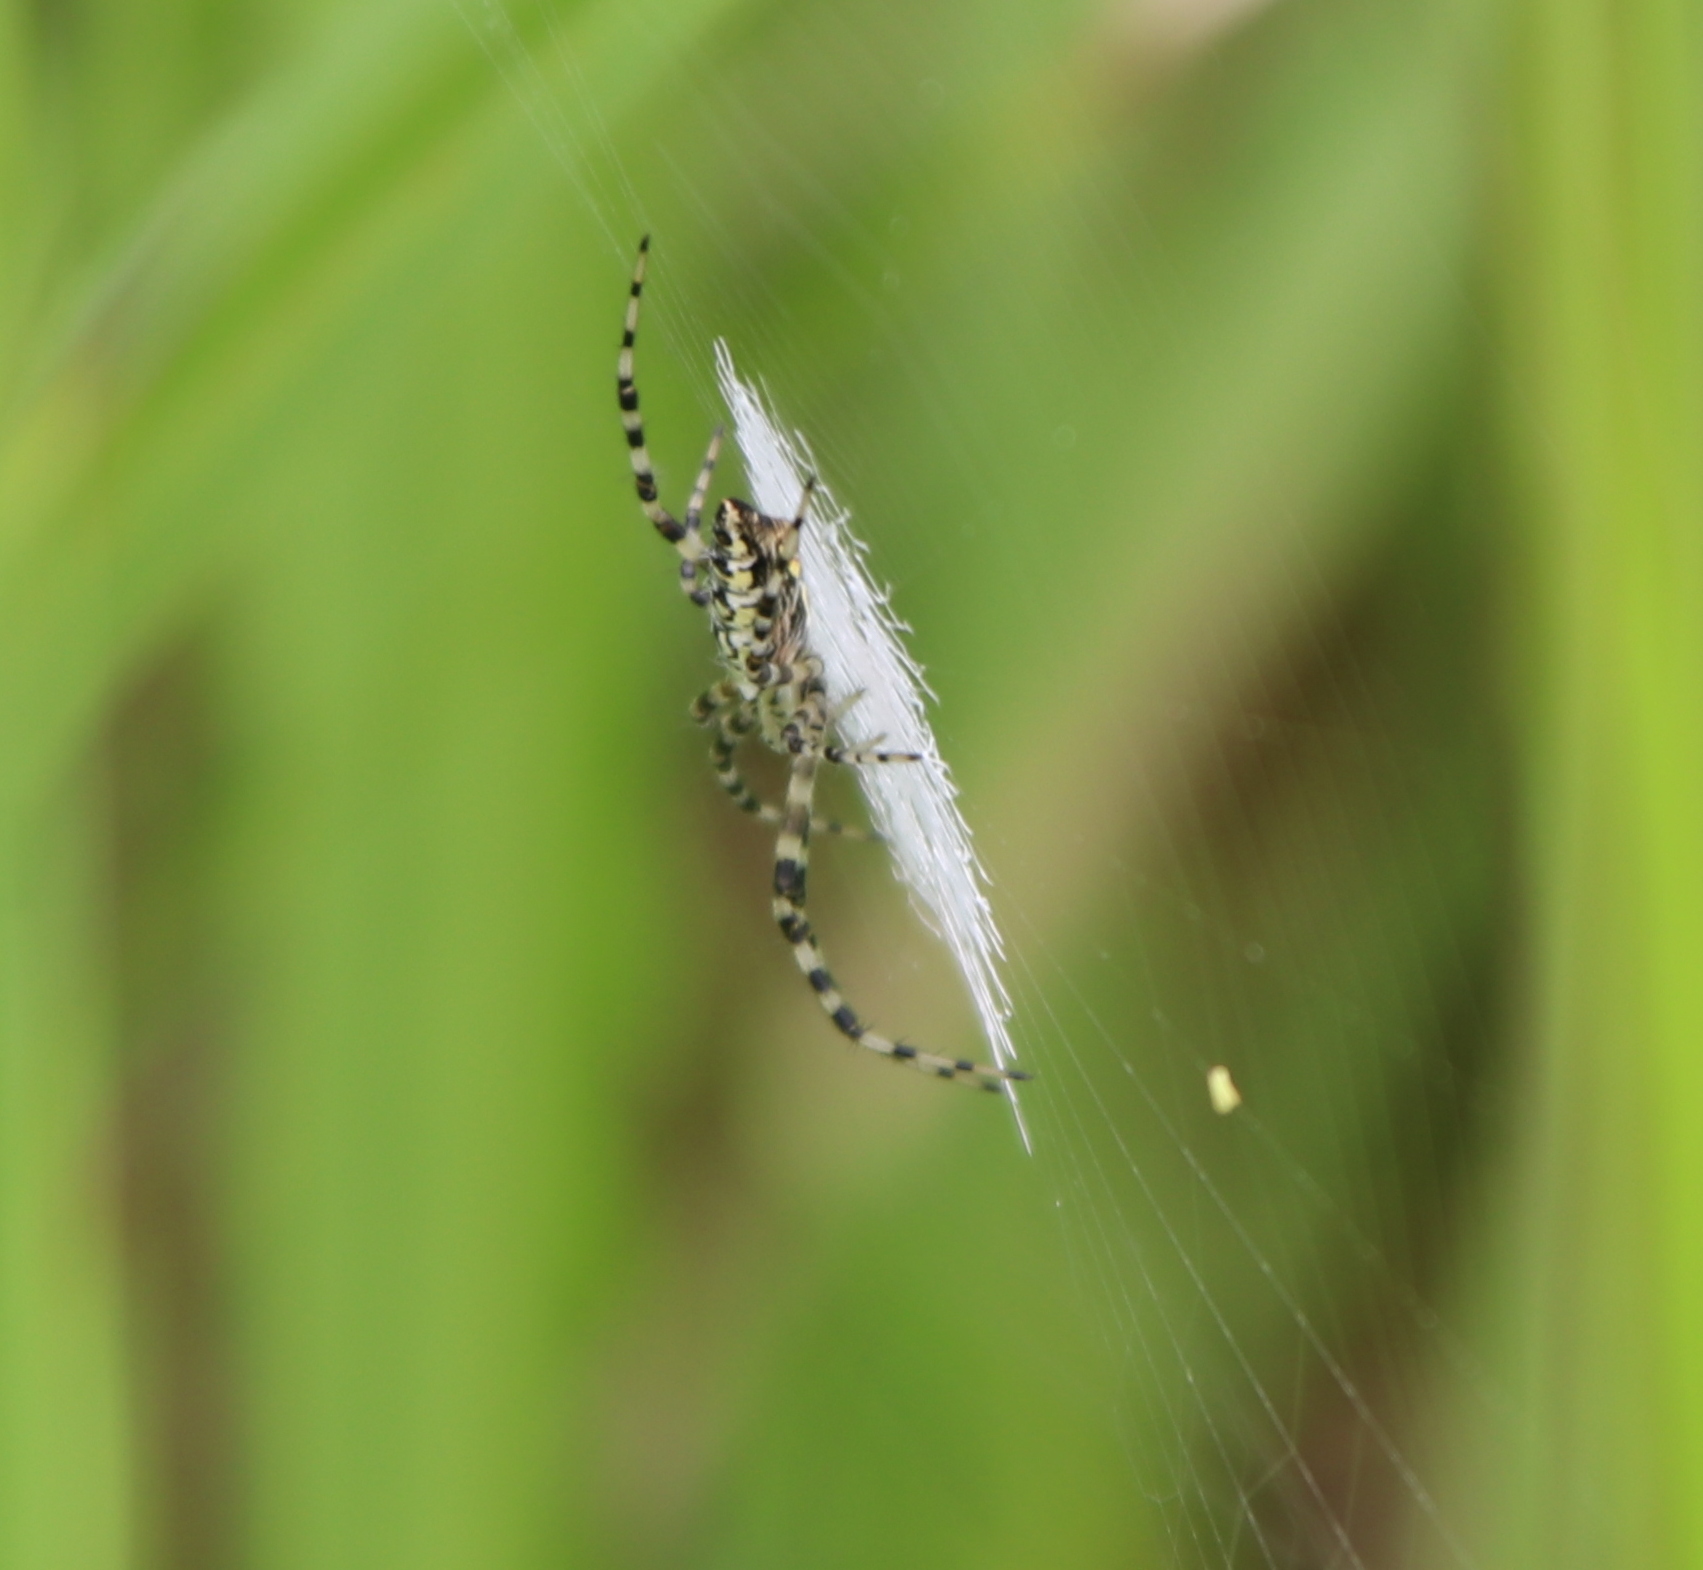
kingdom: Animalia
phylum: Arthropoda
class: Arachnida
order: Araneae
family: Araneidae
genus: Argiope
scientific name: Argiope aurantia
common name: Orb weavers
